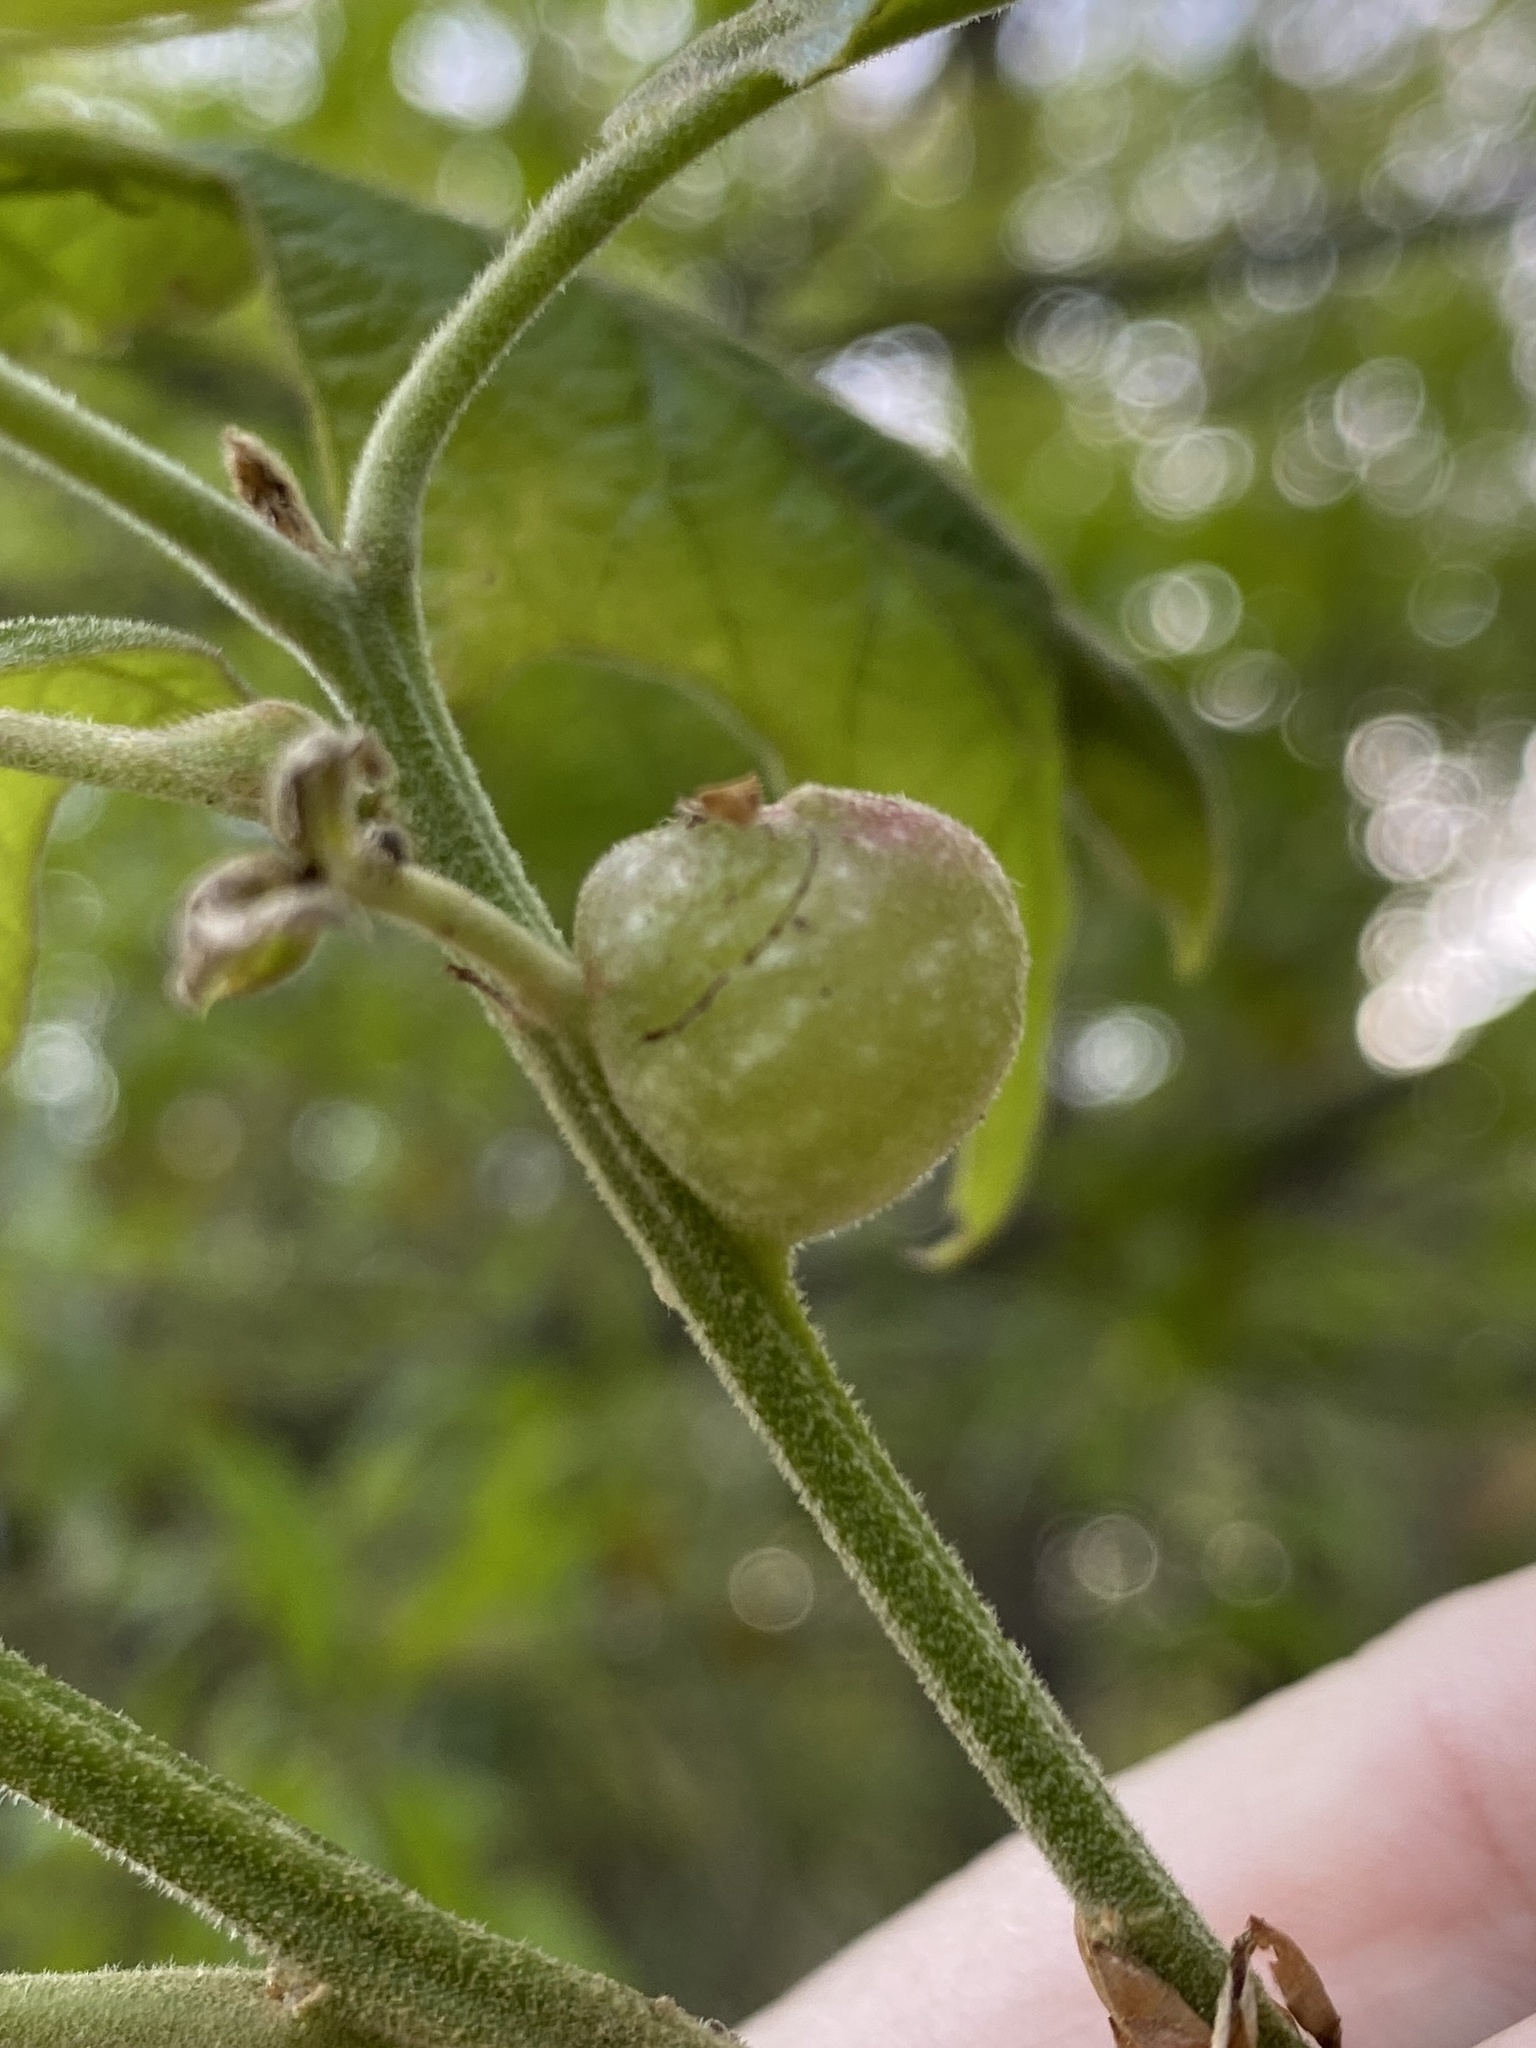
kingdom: Animalia
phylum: Arthropoda
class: Insecta
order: Hymenoptera
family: Cynipidae
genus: Dryocosmus
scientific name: Dryocosmus quercuspalustris
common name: Succulent oak gall wasp
